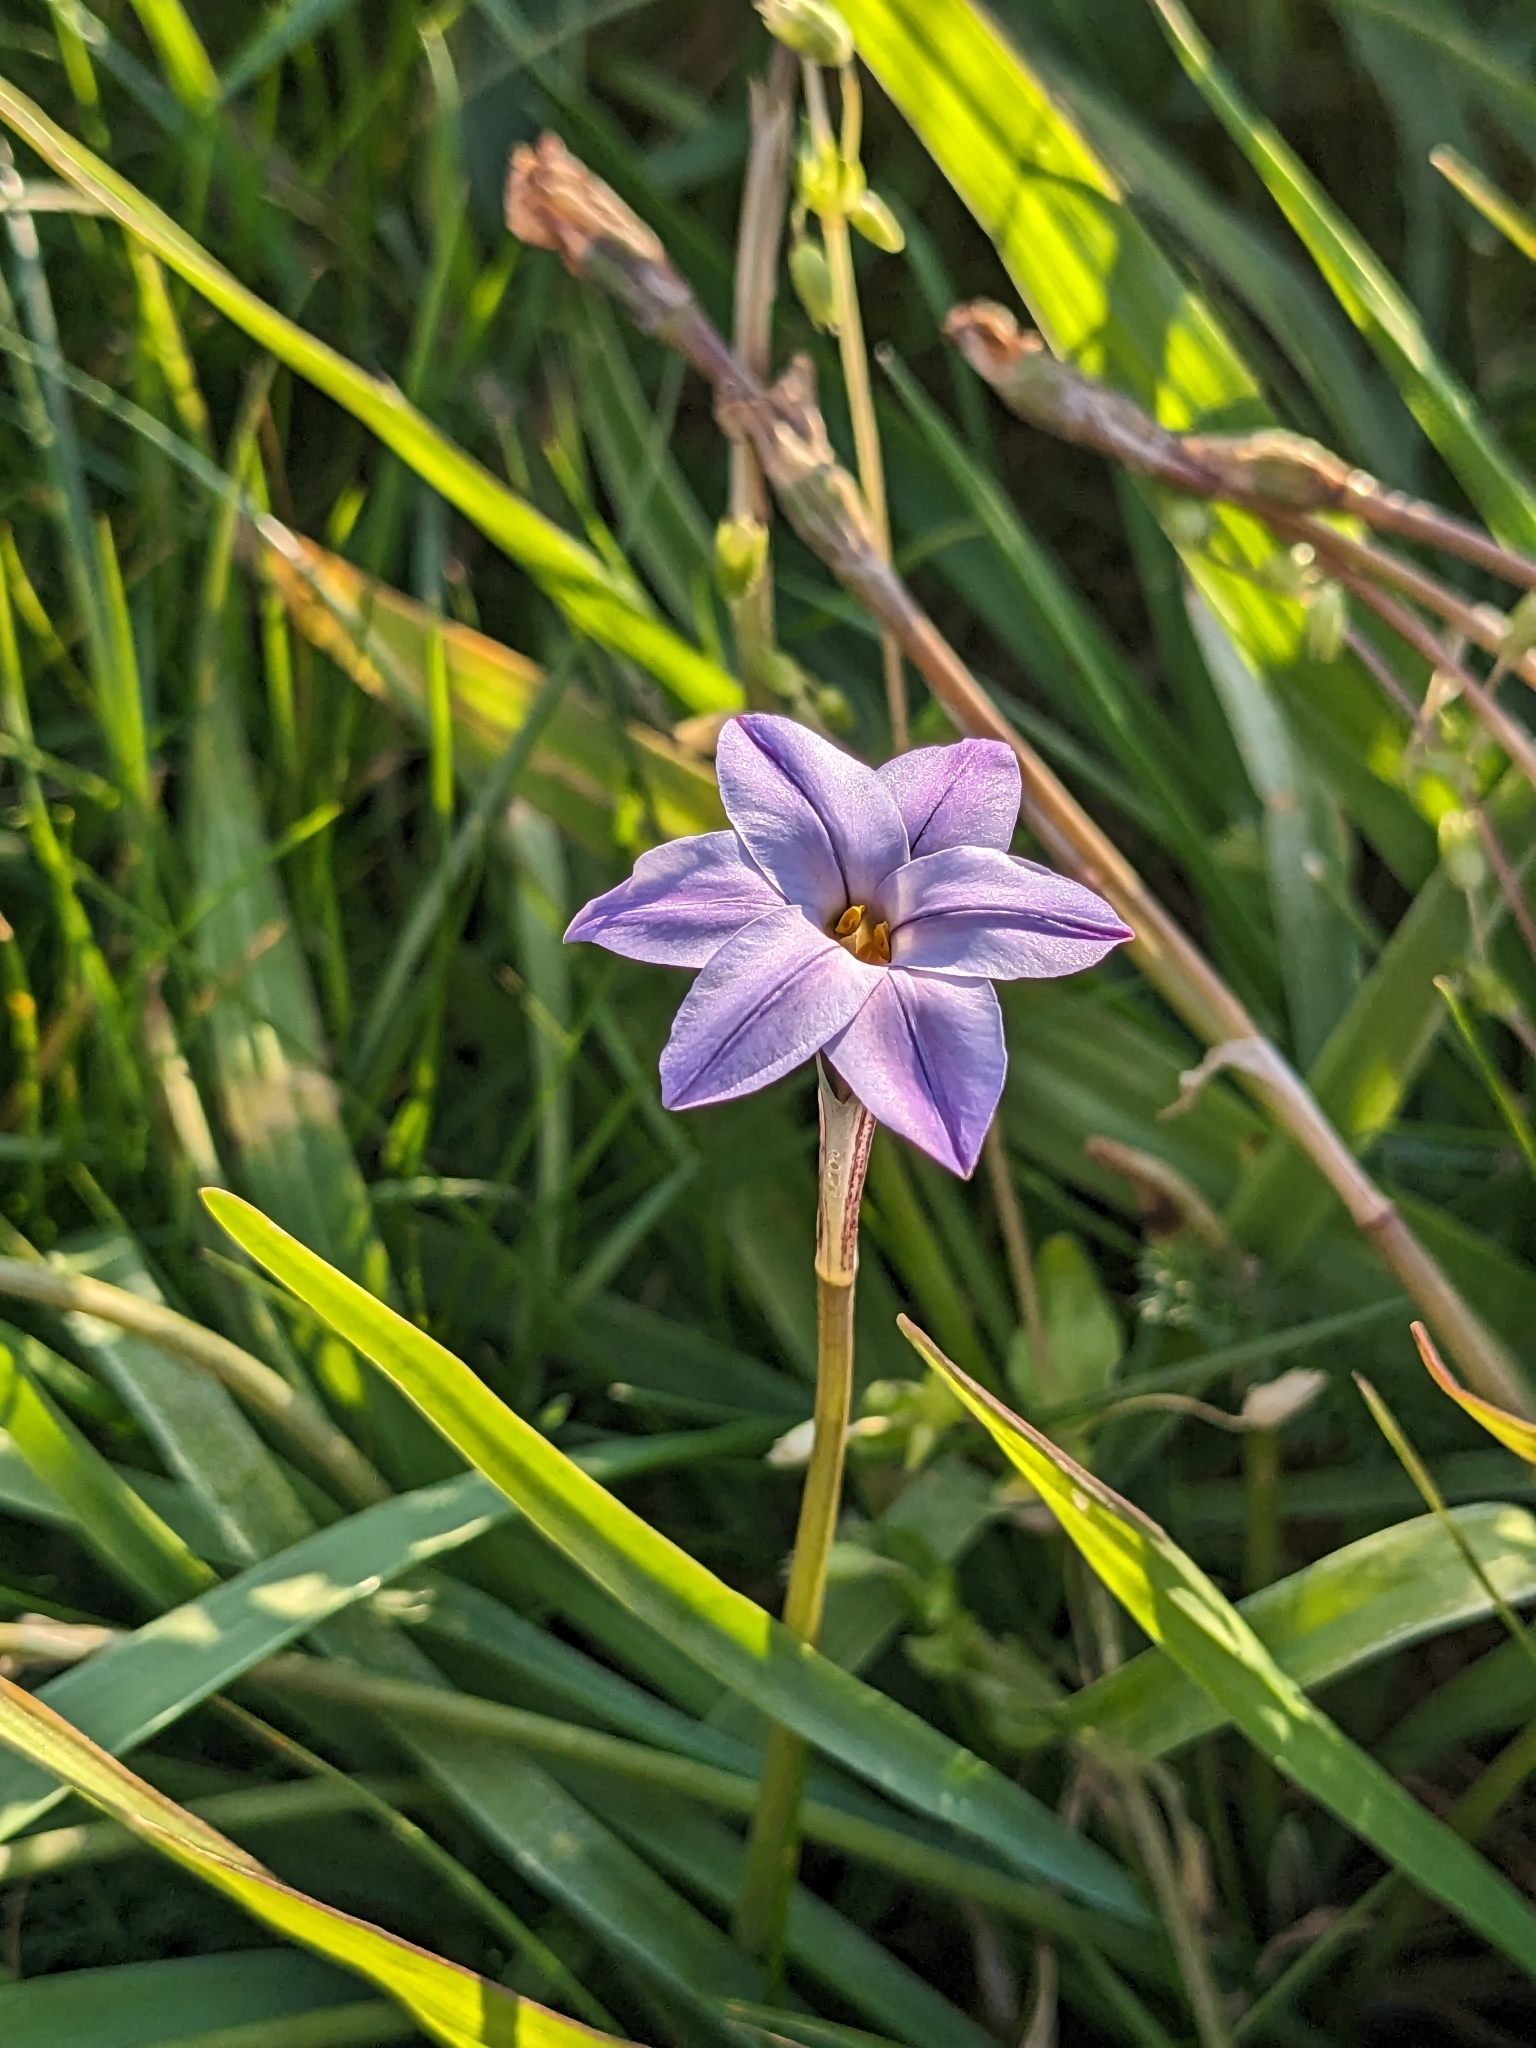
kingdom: Plantae
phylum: Tracheophyta
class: Liliopsida
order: Asparagales
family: Amaryllidaceae
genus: Ipheion
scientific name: Ipheion uniflorum
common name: Spring starflower
